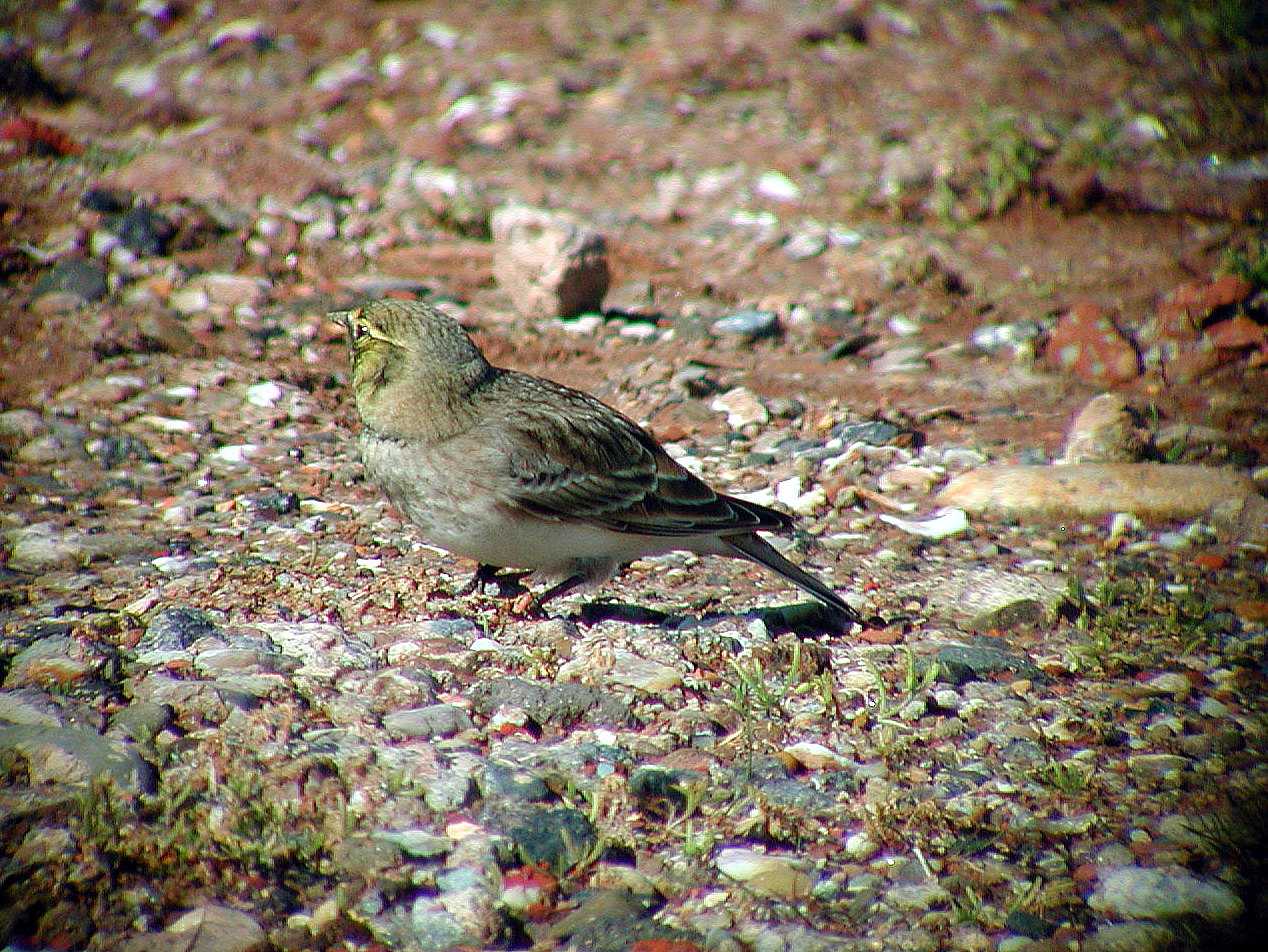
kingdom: Animalia
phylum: Chordata
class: Aves
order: Passeriformes
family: Alaudidae
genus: Eremophila
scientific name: Eremophila alpestris
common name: Horned lark
